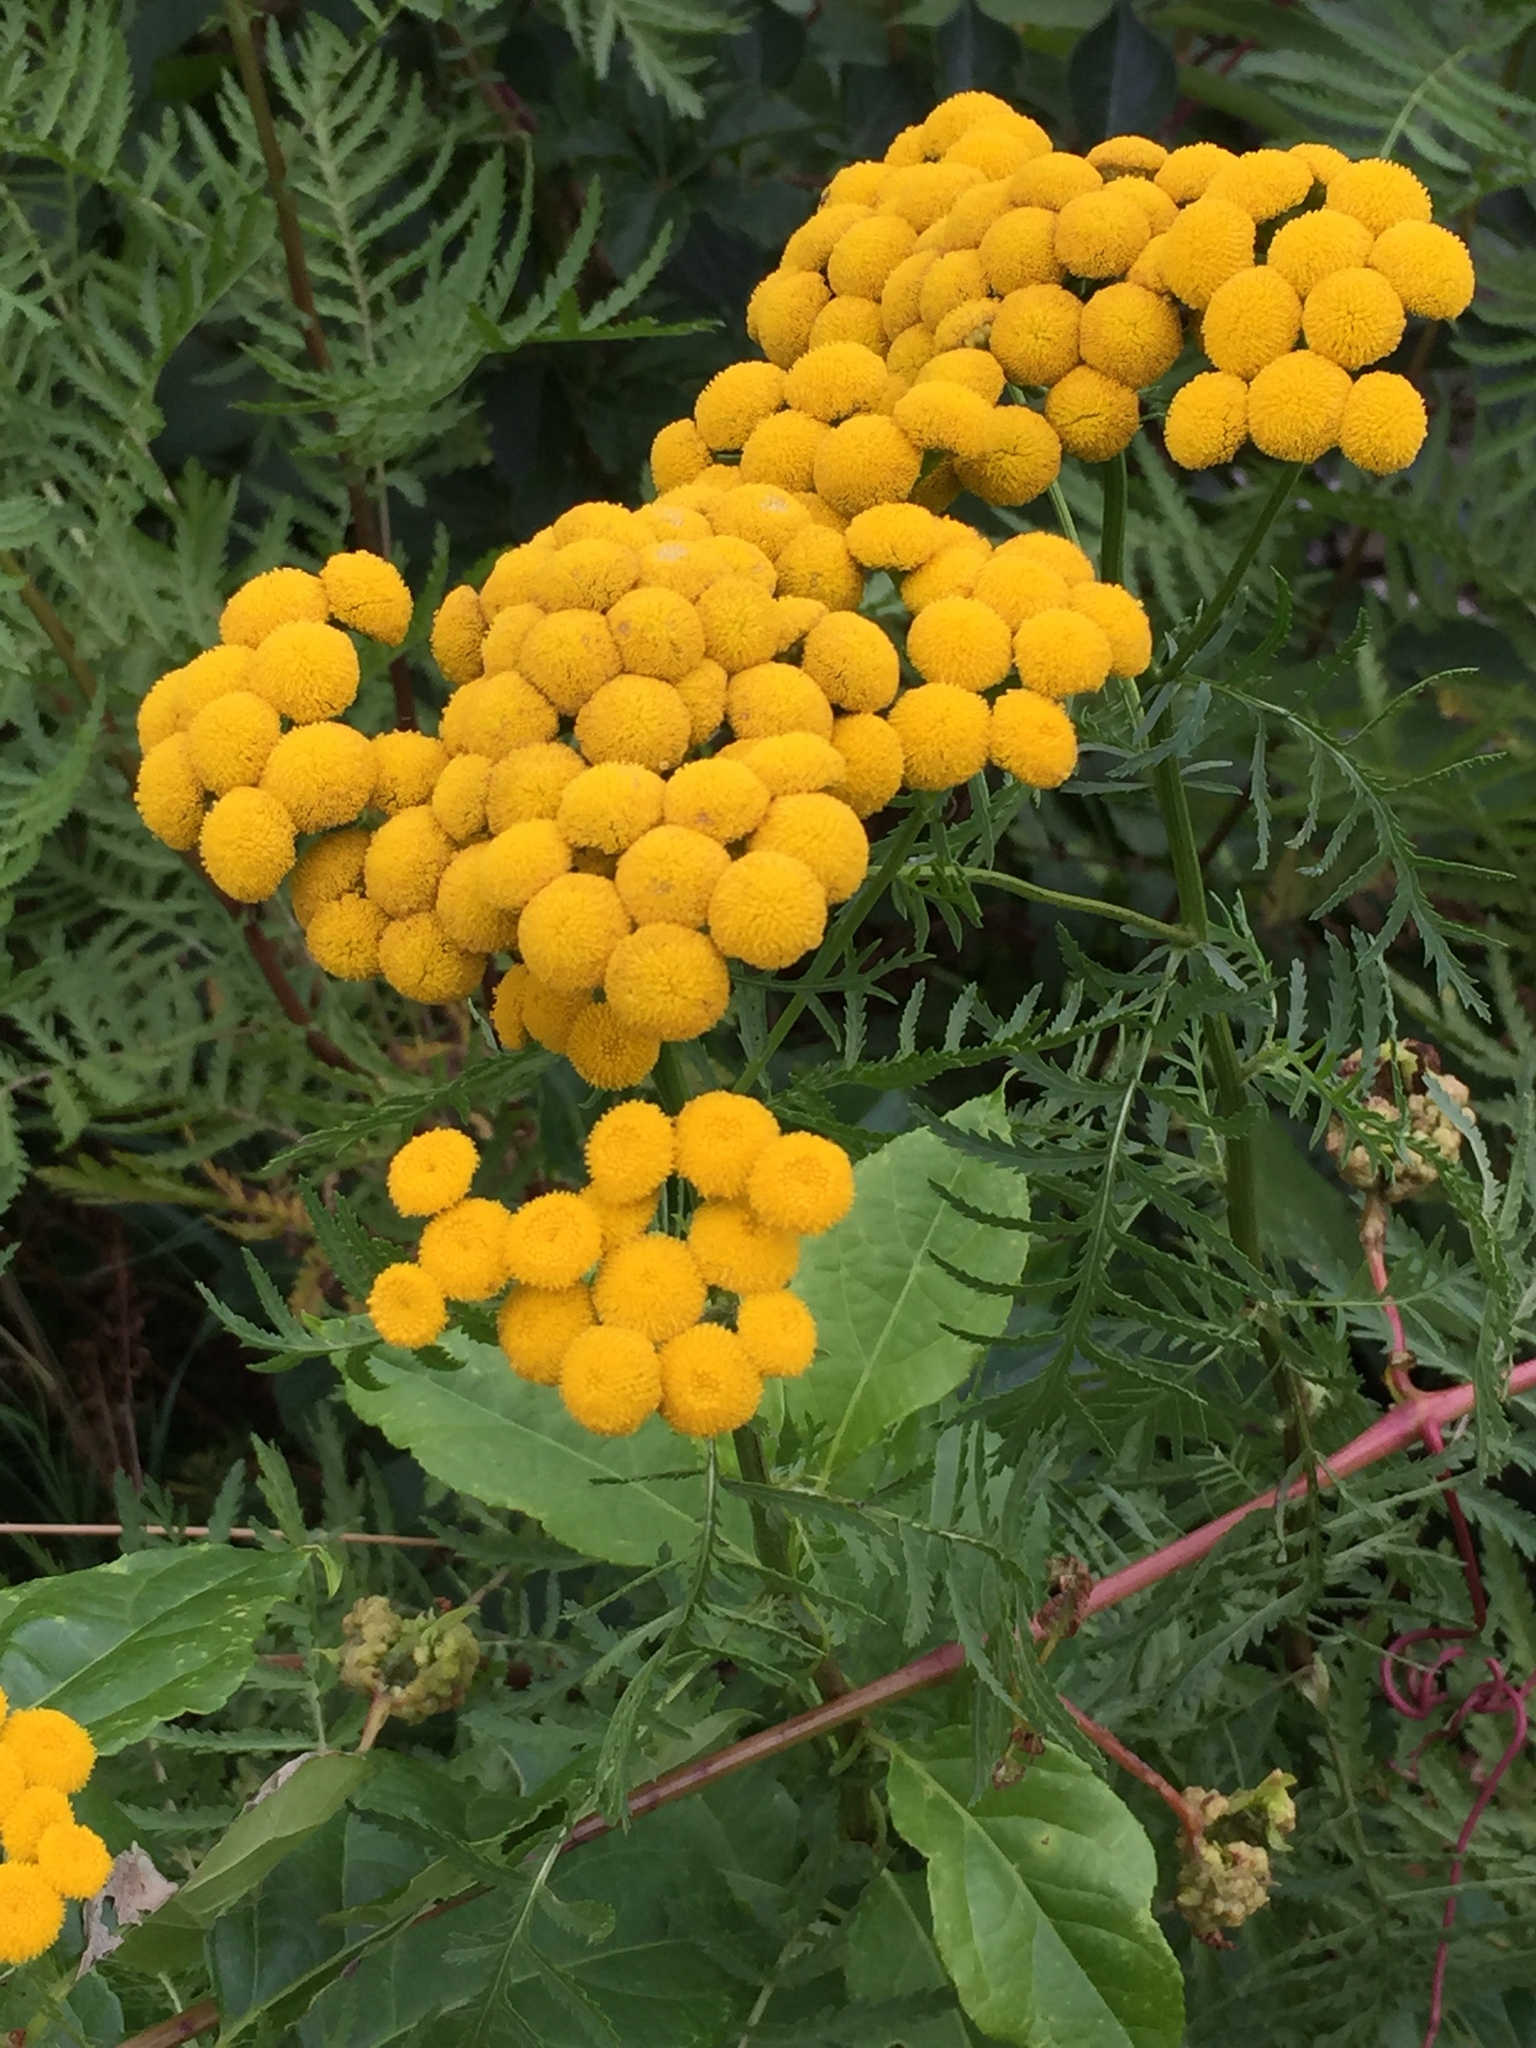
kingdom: Plantae
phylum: Tracheophyta
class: Magnoliopsida
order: Asterales
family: Asteraceae
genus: Tanacetum
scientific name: Tanacetum vulgare
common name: Common tansy
